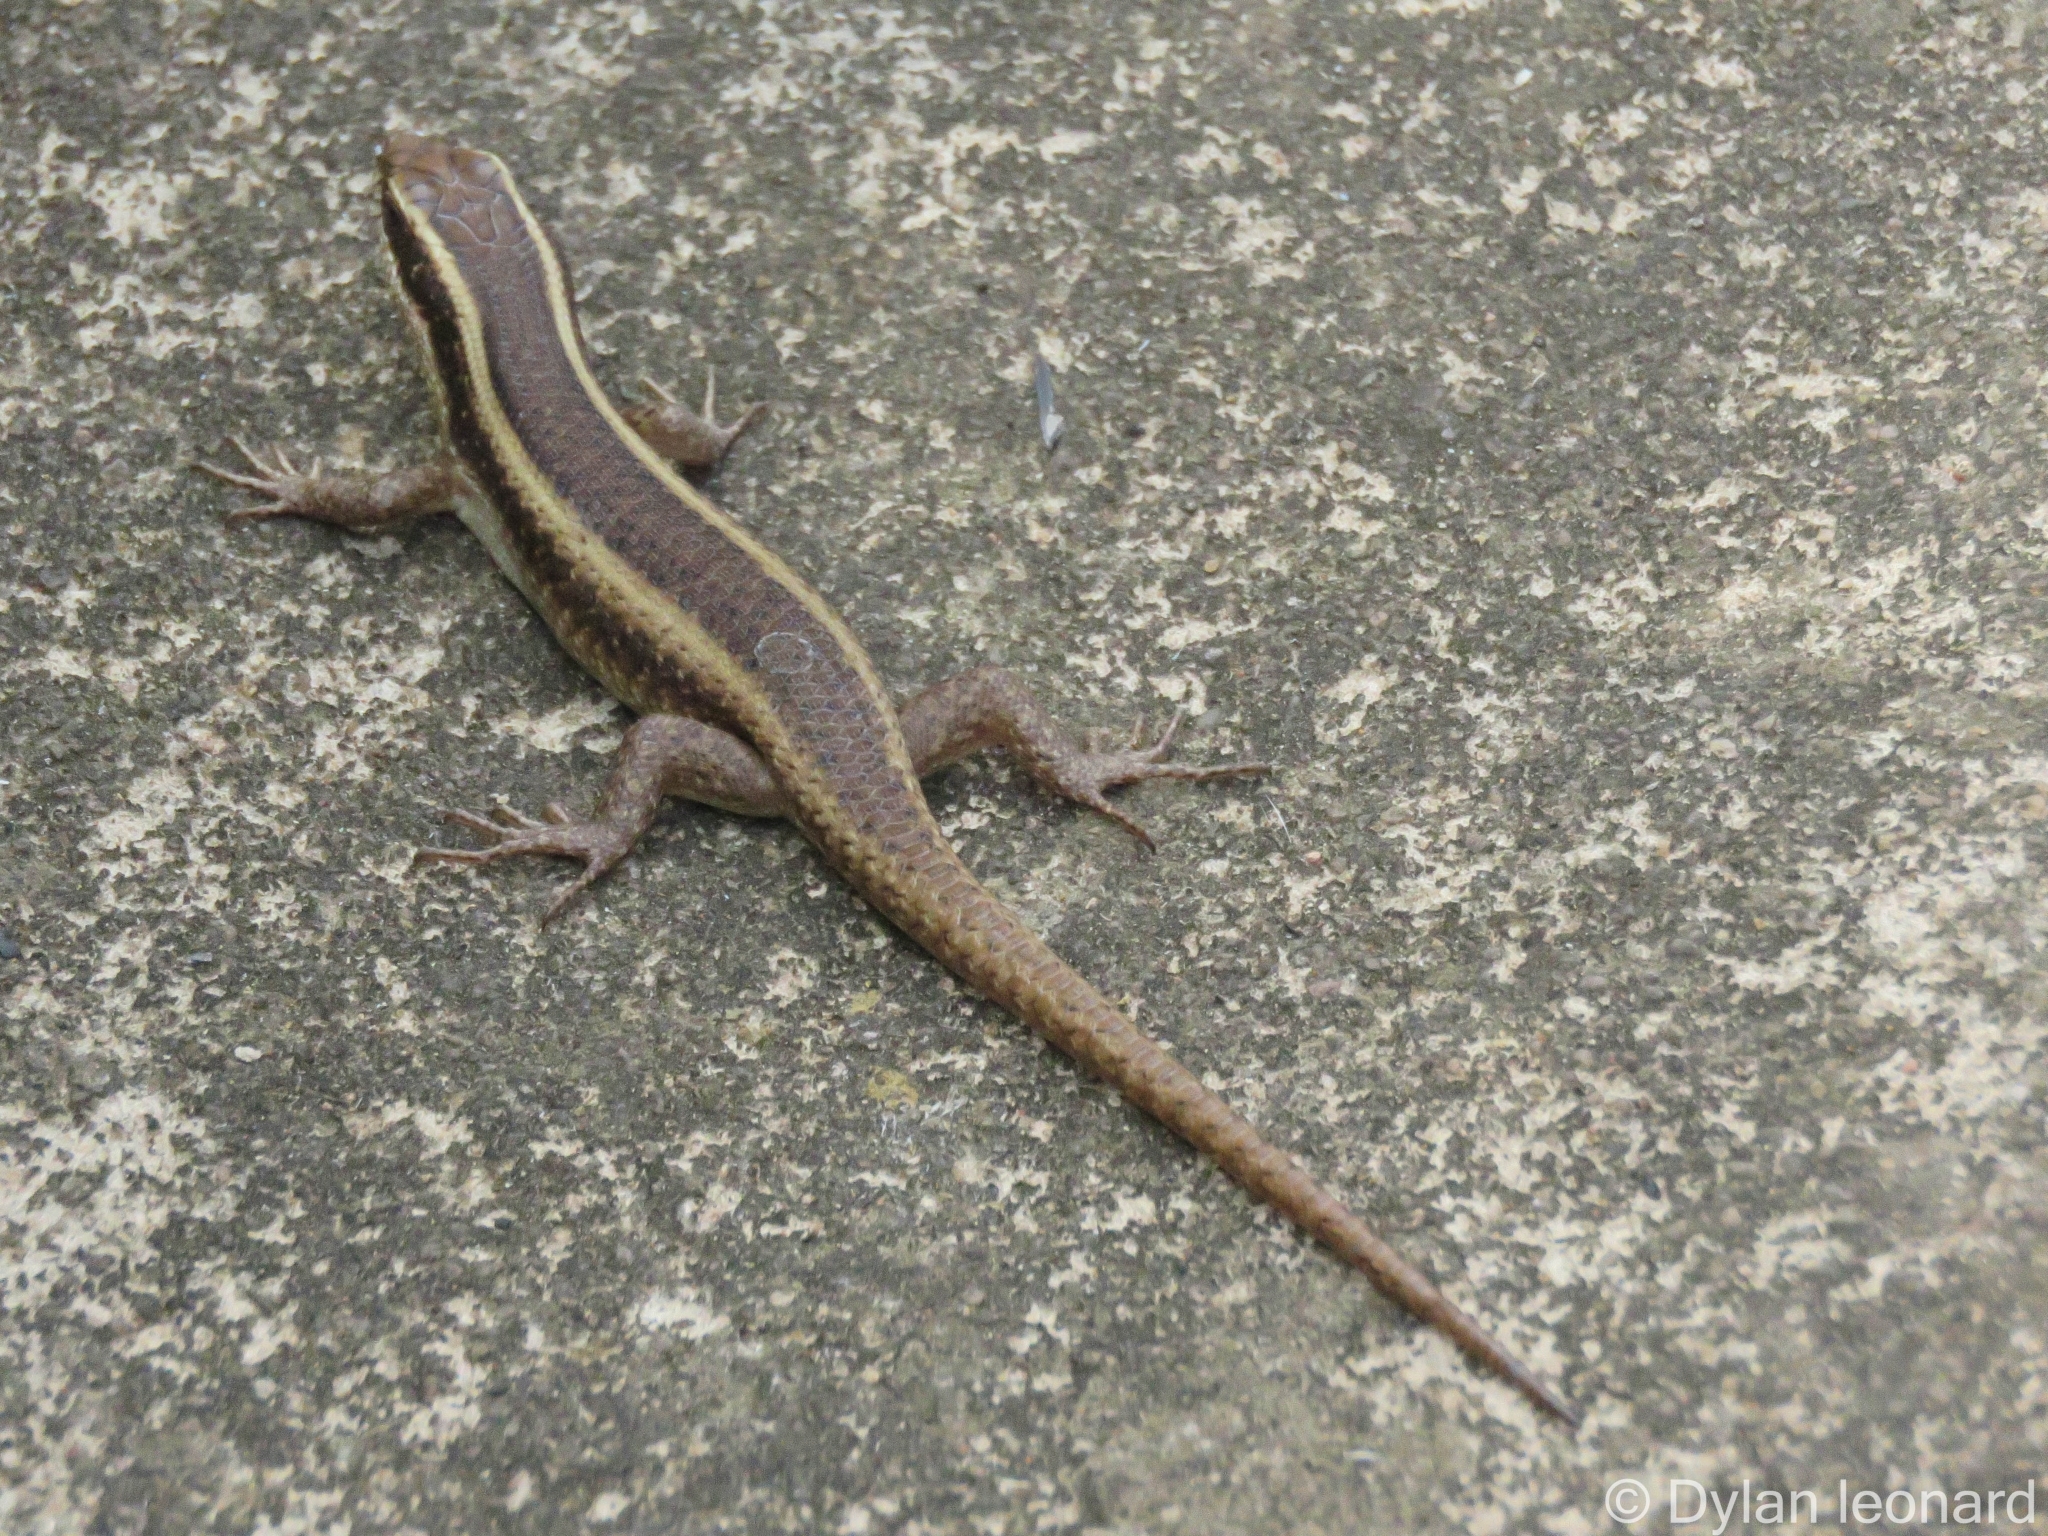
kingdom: Animalia
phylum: Chordata
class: Squamata
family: Scincidae
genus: Trachylepis
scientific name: Trachylepis striata
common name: African striped mabuya
